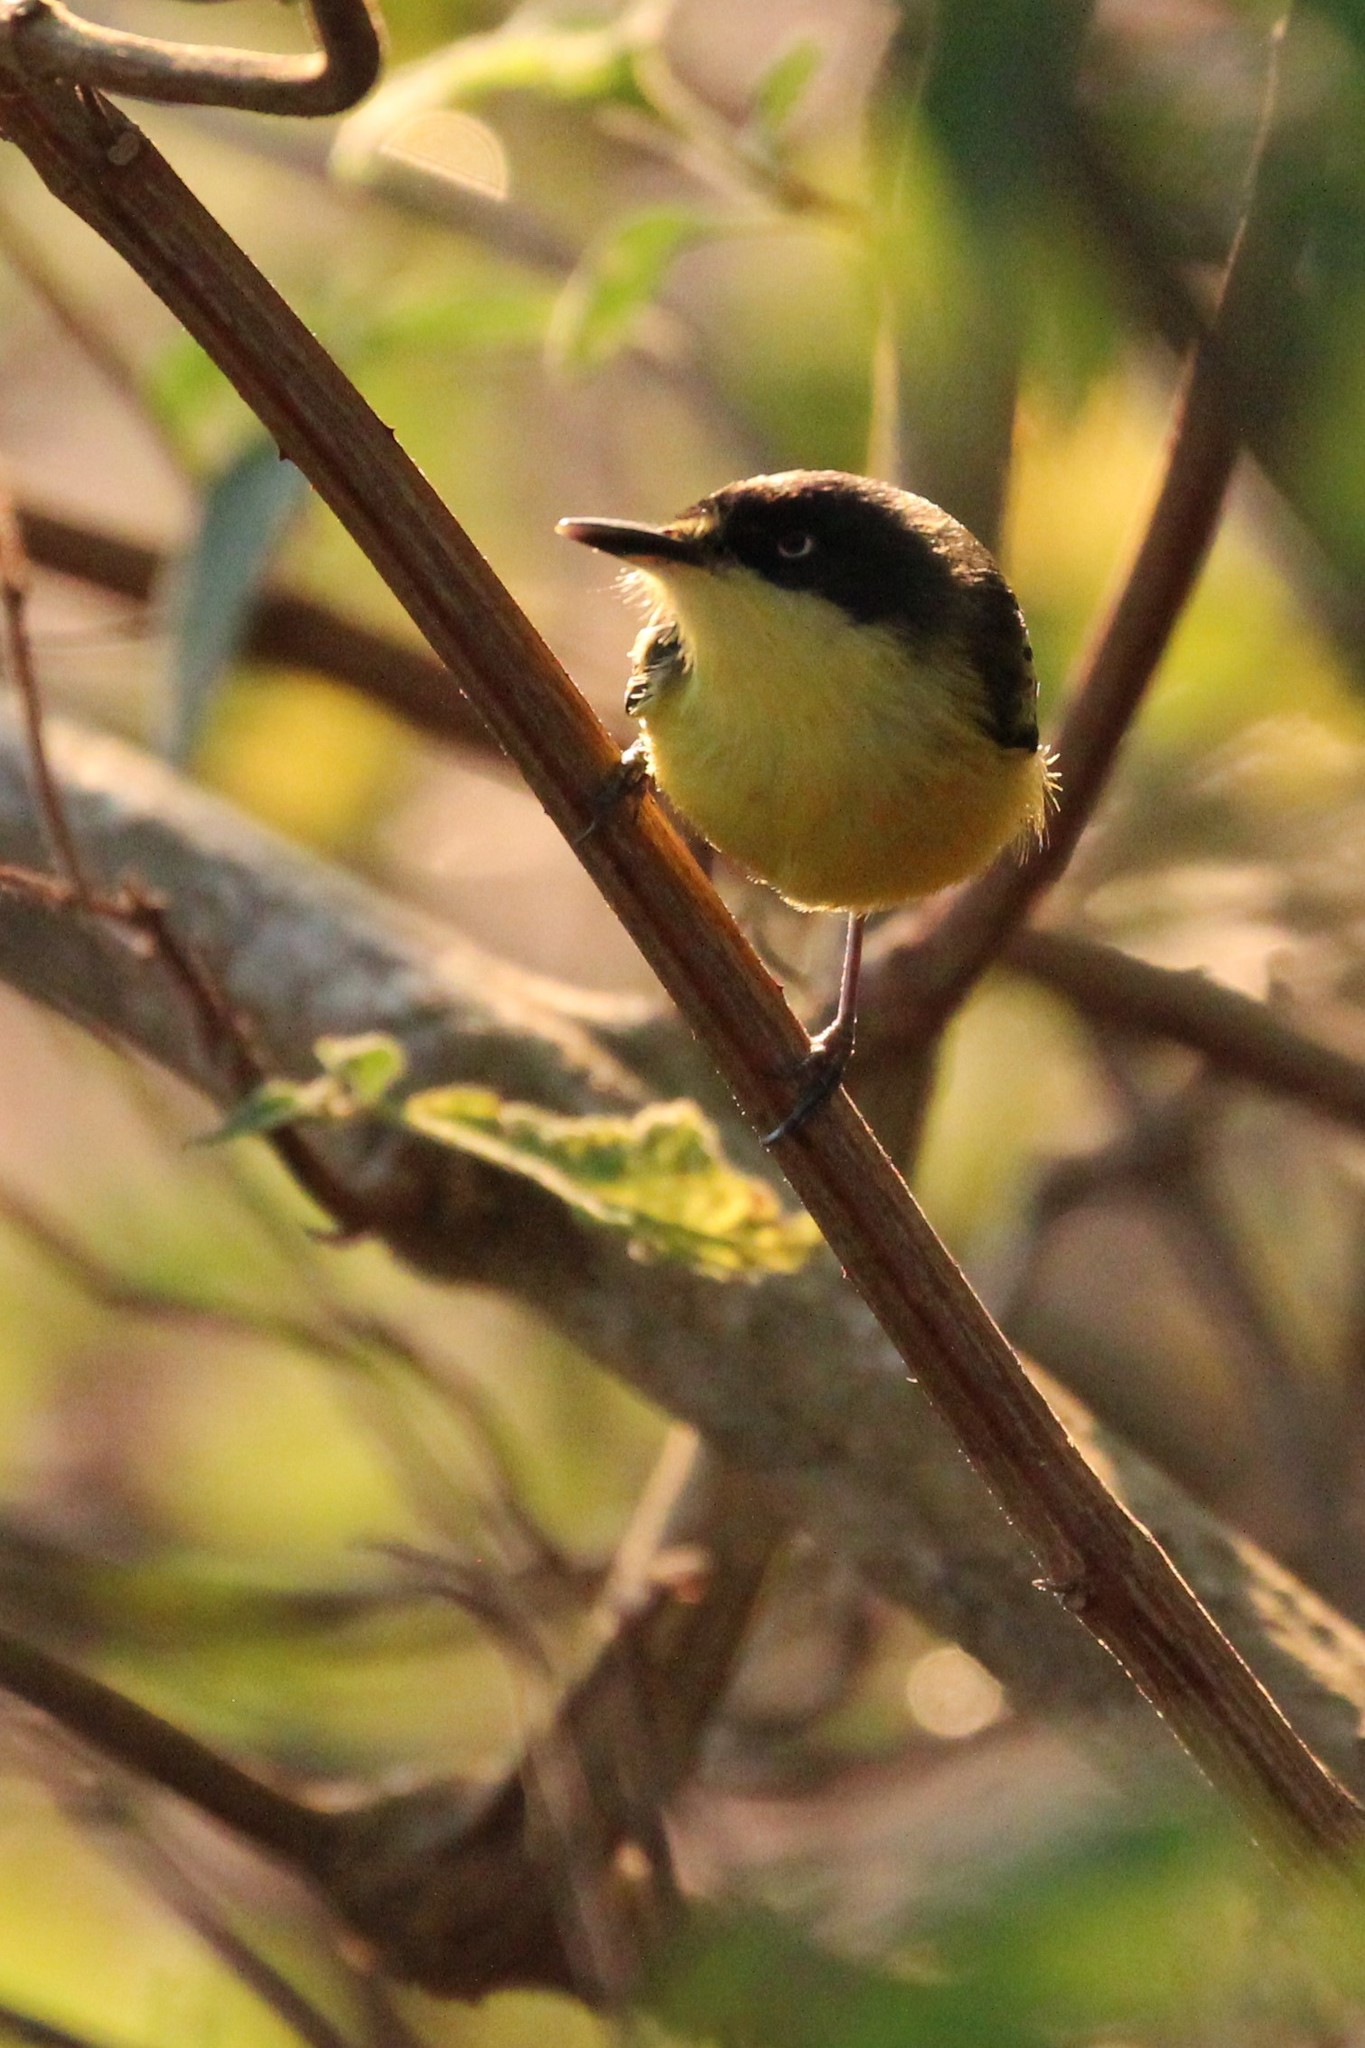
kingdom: Animalia
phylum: Chordata
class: Aves
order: Passeriformes
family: Tyrannidae
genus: Todirostrum
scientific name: Todirostrum cinereum
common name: Common tody-flycatcher
